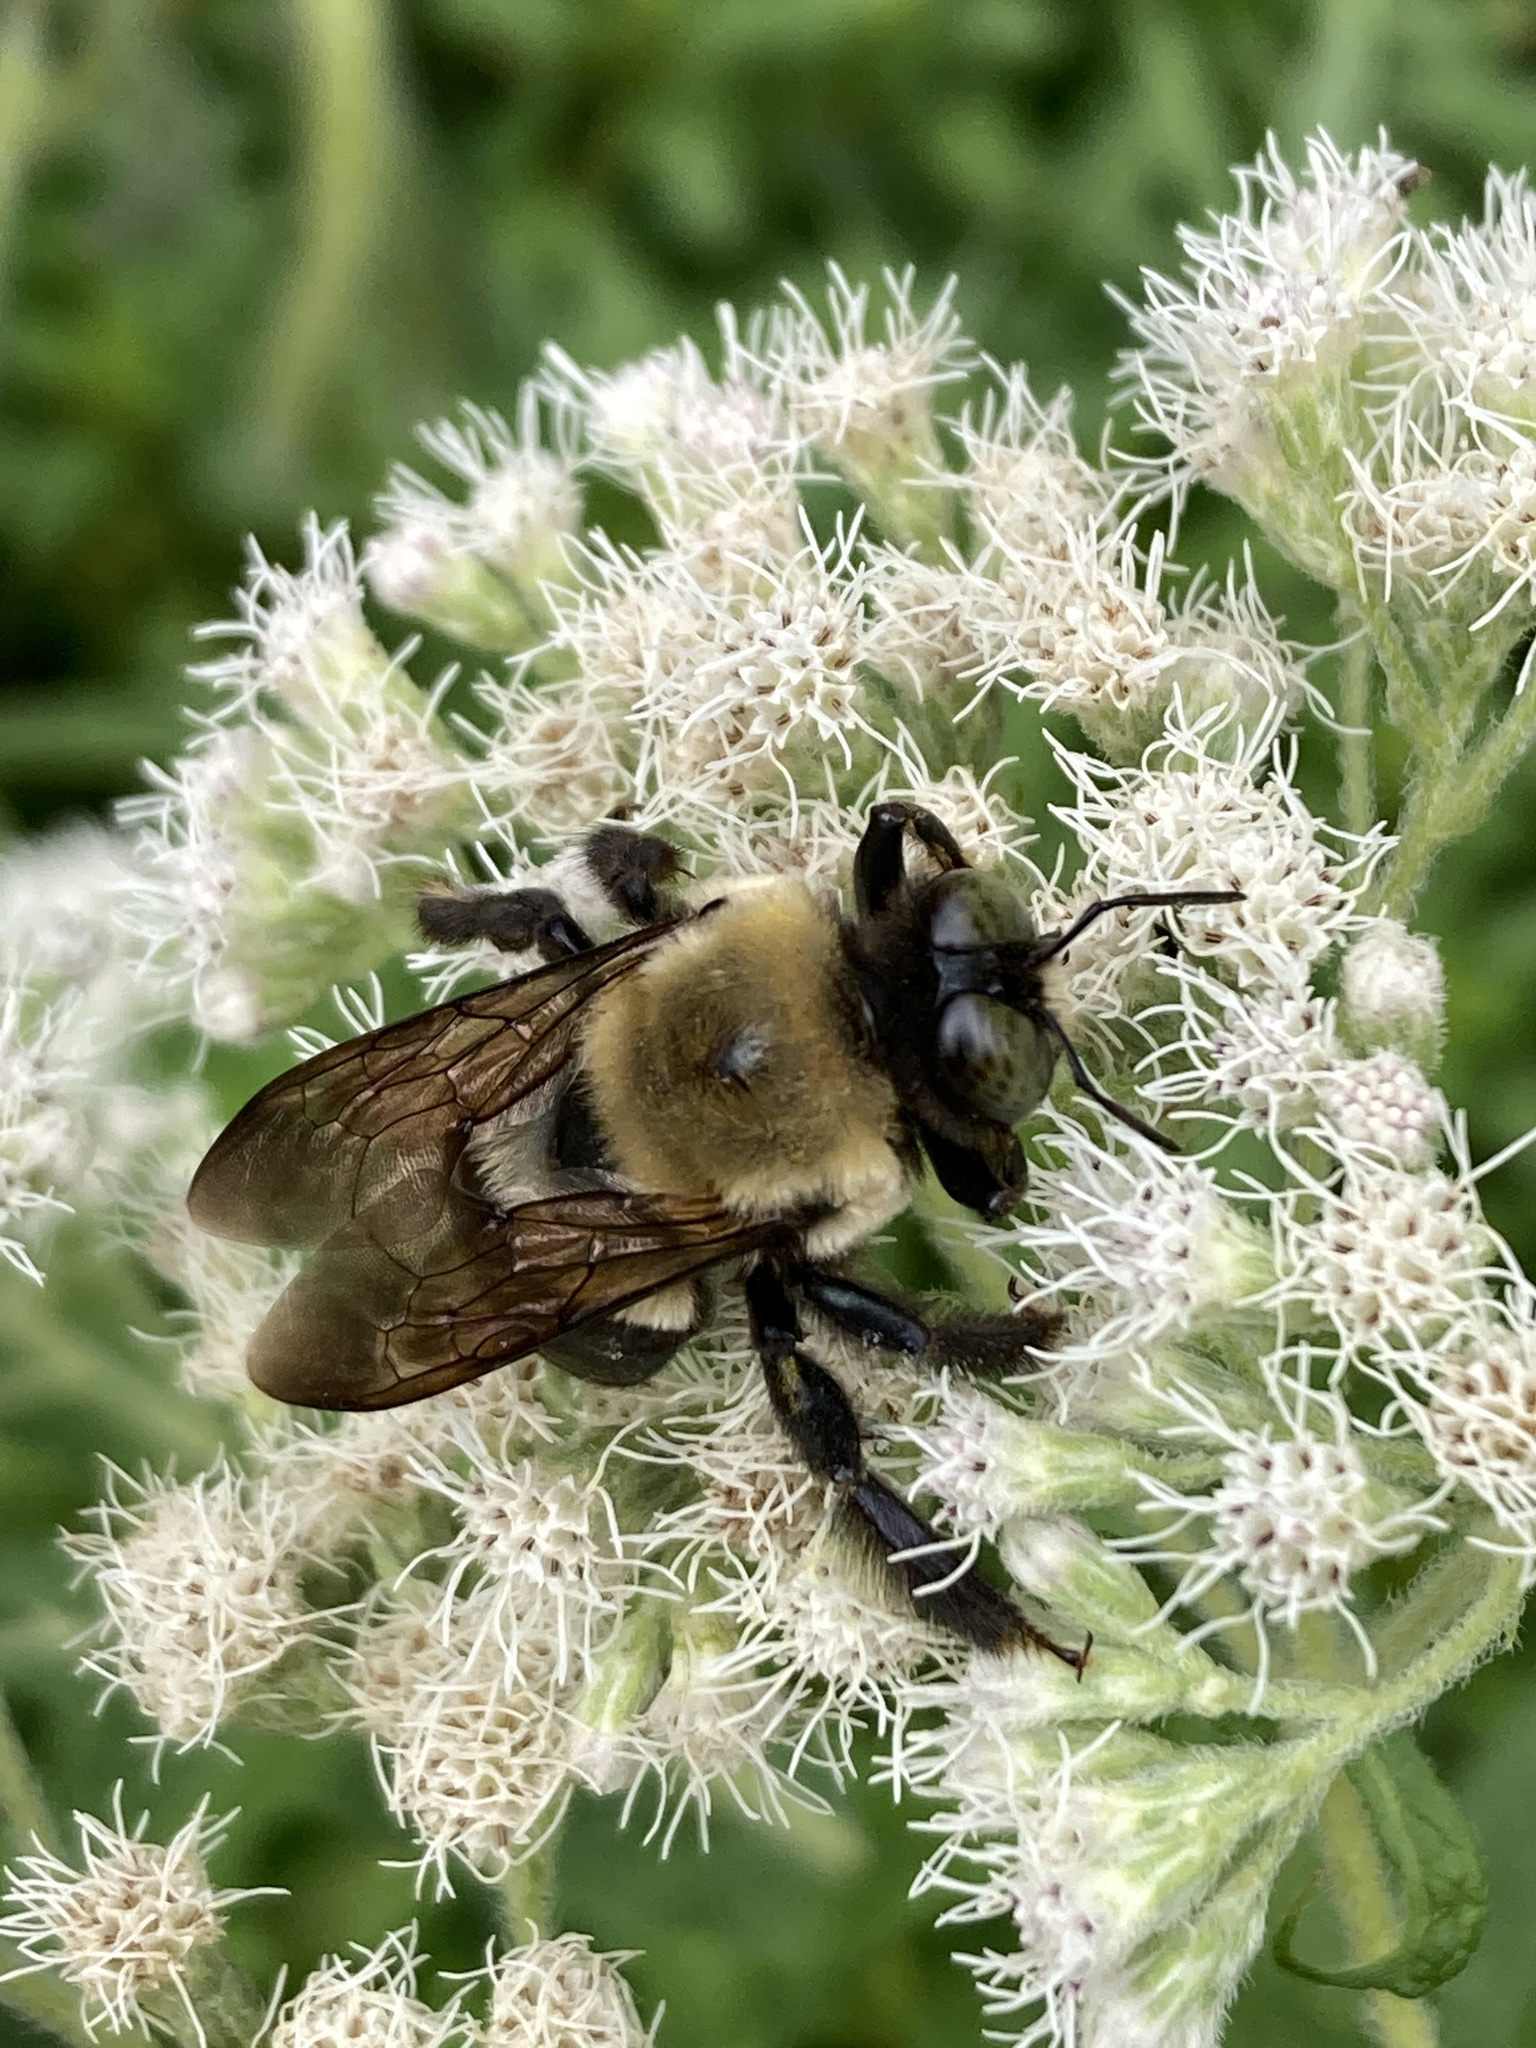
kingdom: Animalia
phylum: Arthropoda
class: Insecta
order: Hymenoptera
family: Apidae
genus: Xylocopa
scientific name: Xylocopa virginica
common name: Carpenter bee
